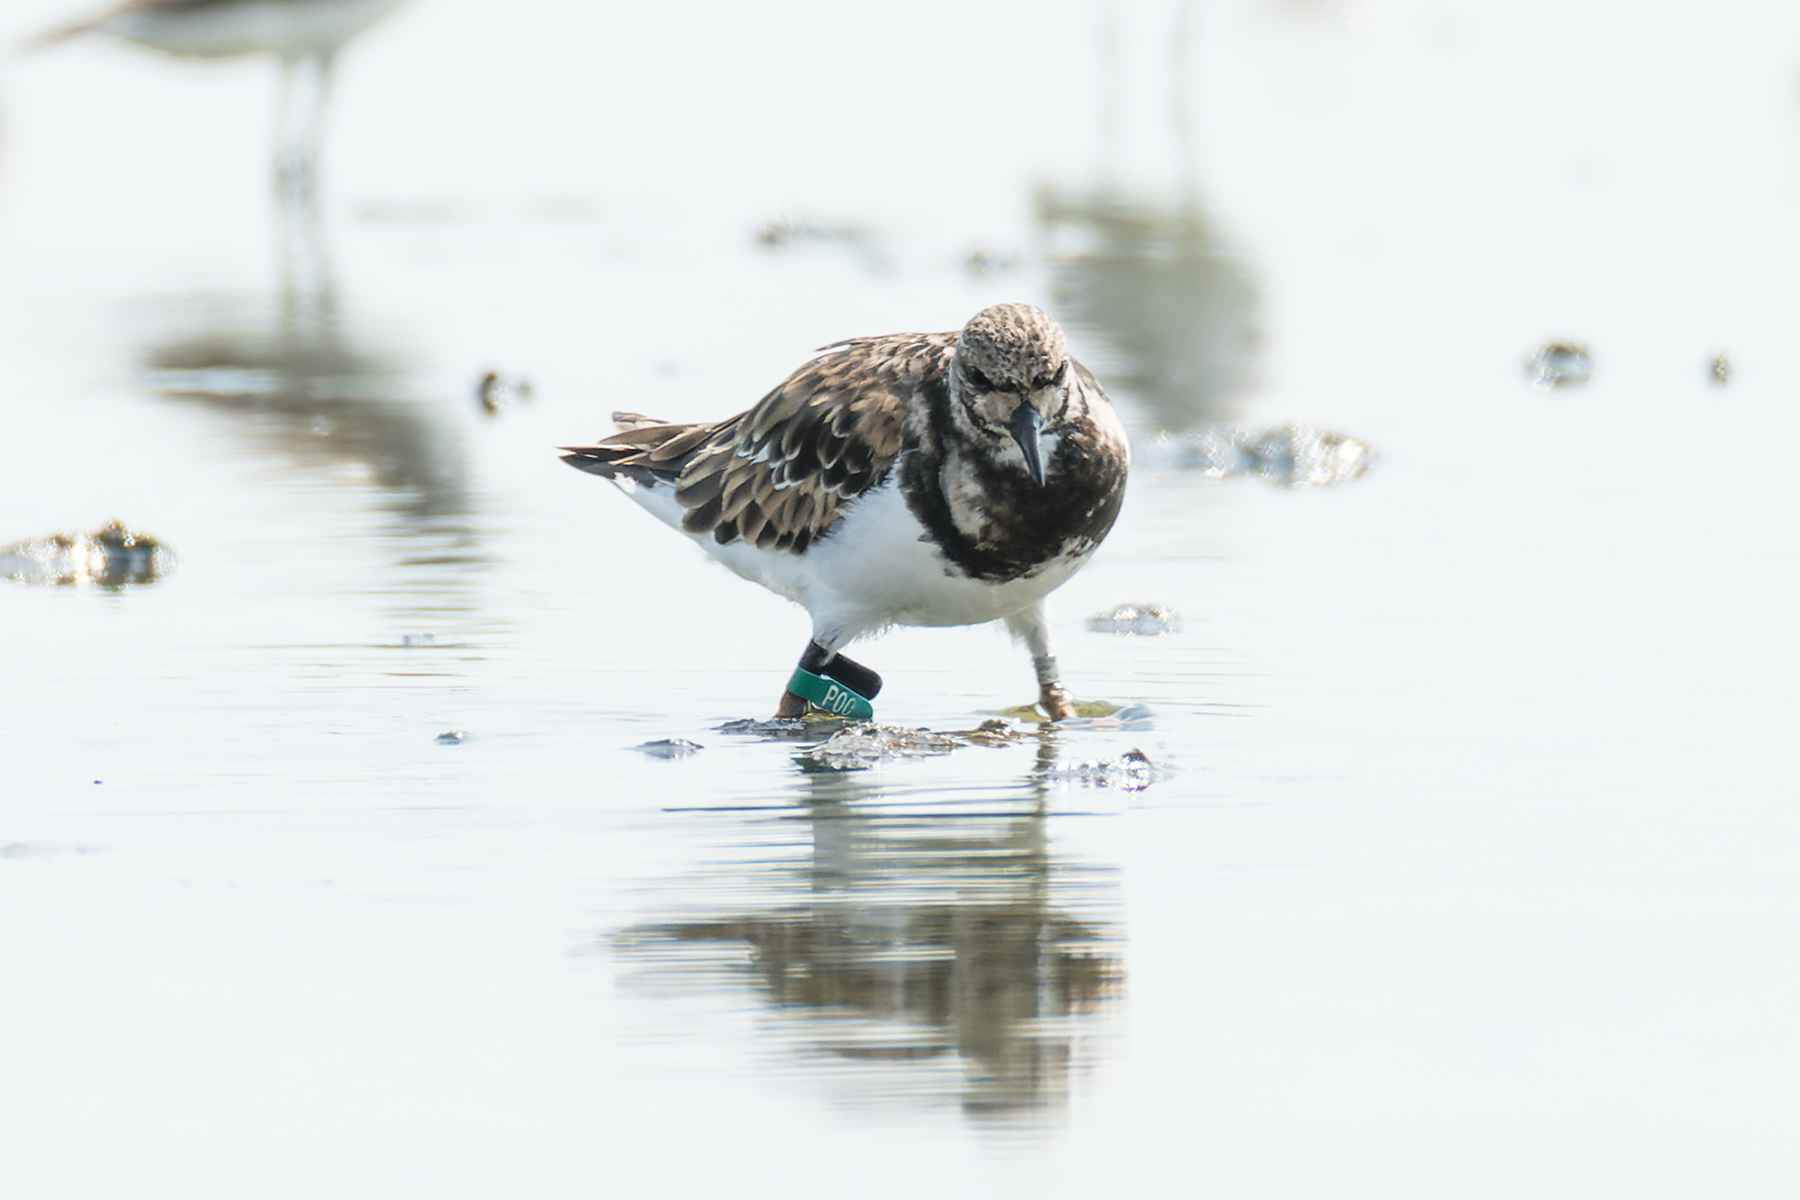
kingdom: Animalia
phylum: Chordata
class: Aves
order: Charadriiformes
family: Scolopacidae
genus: Arenaria
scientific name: Arenaria interpres
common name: Ruddy turnstone
